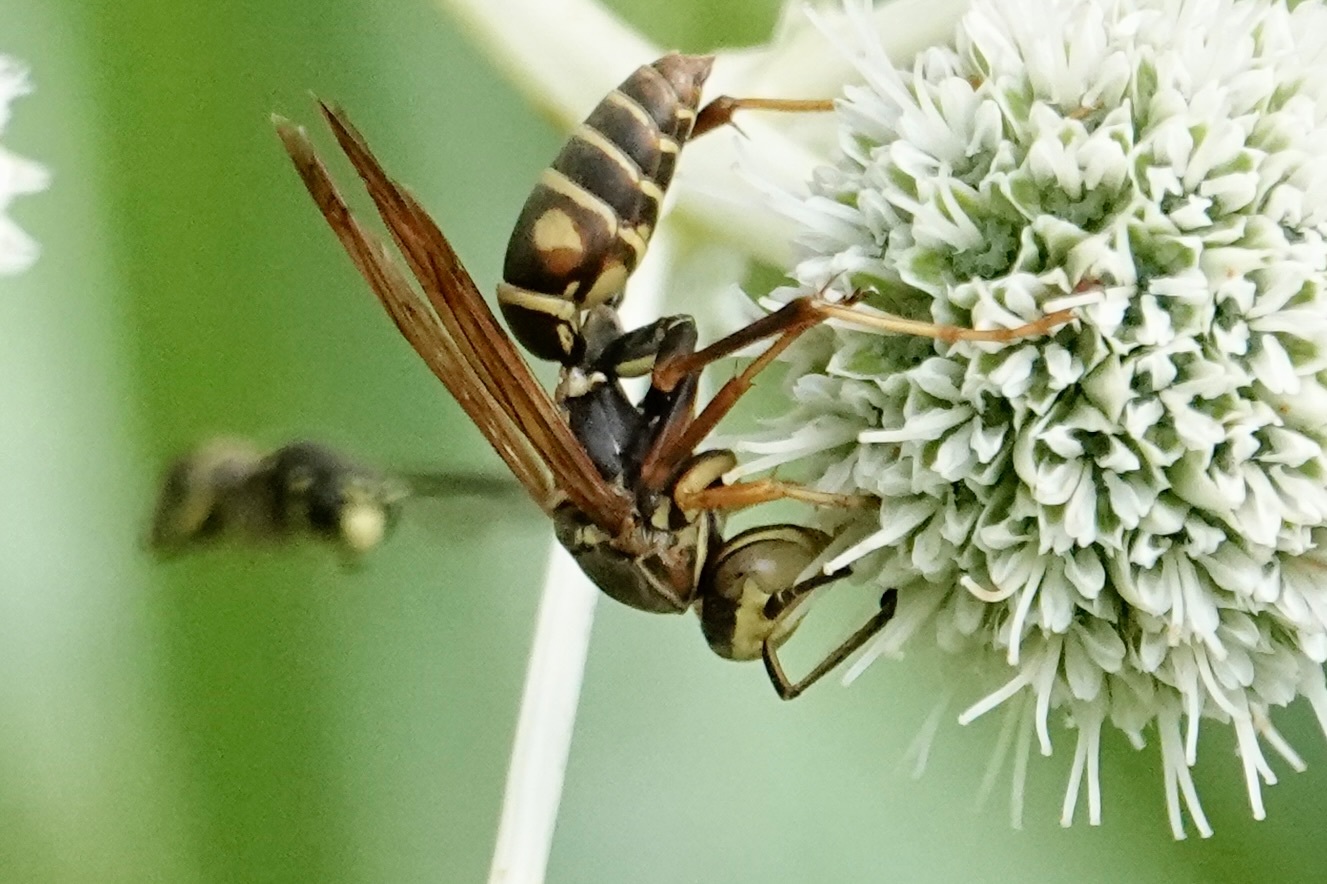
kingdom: Animalia
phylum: Arthropoda
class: Insecta
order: Hymenoptera
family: Eumenidae
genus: Polistes
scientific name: Polistes fuscatus
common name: Dark paper wasp
